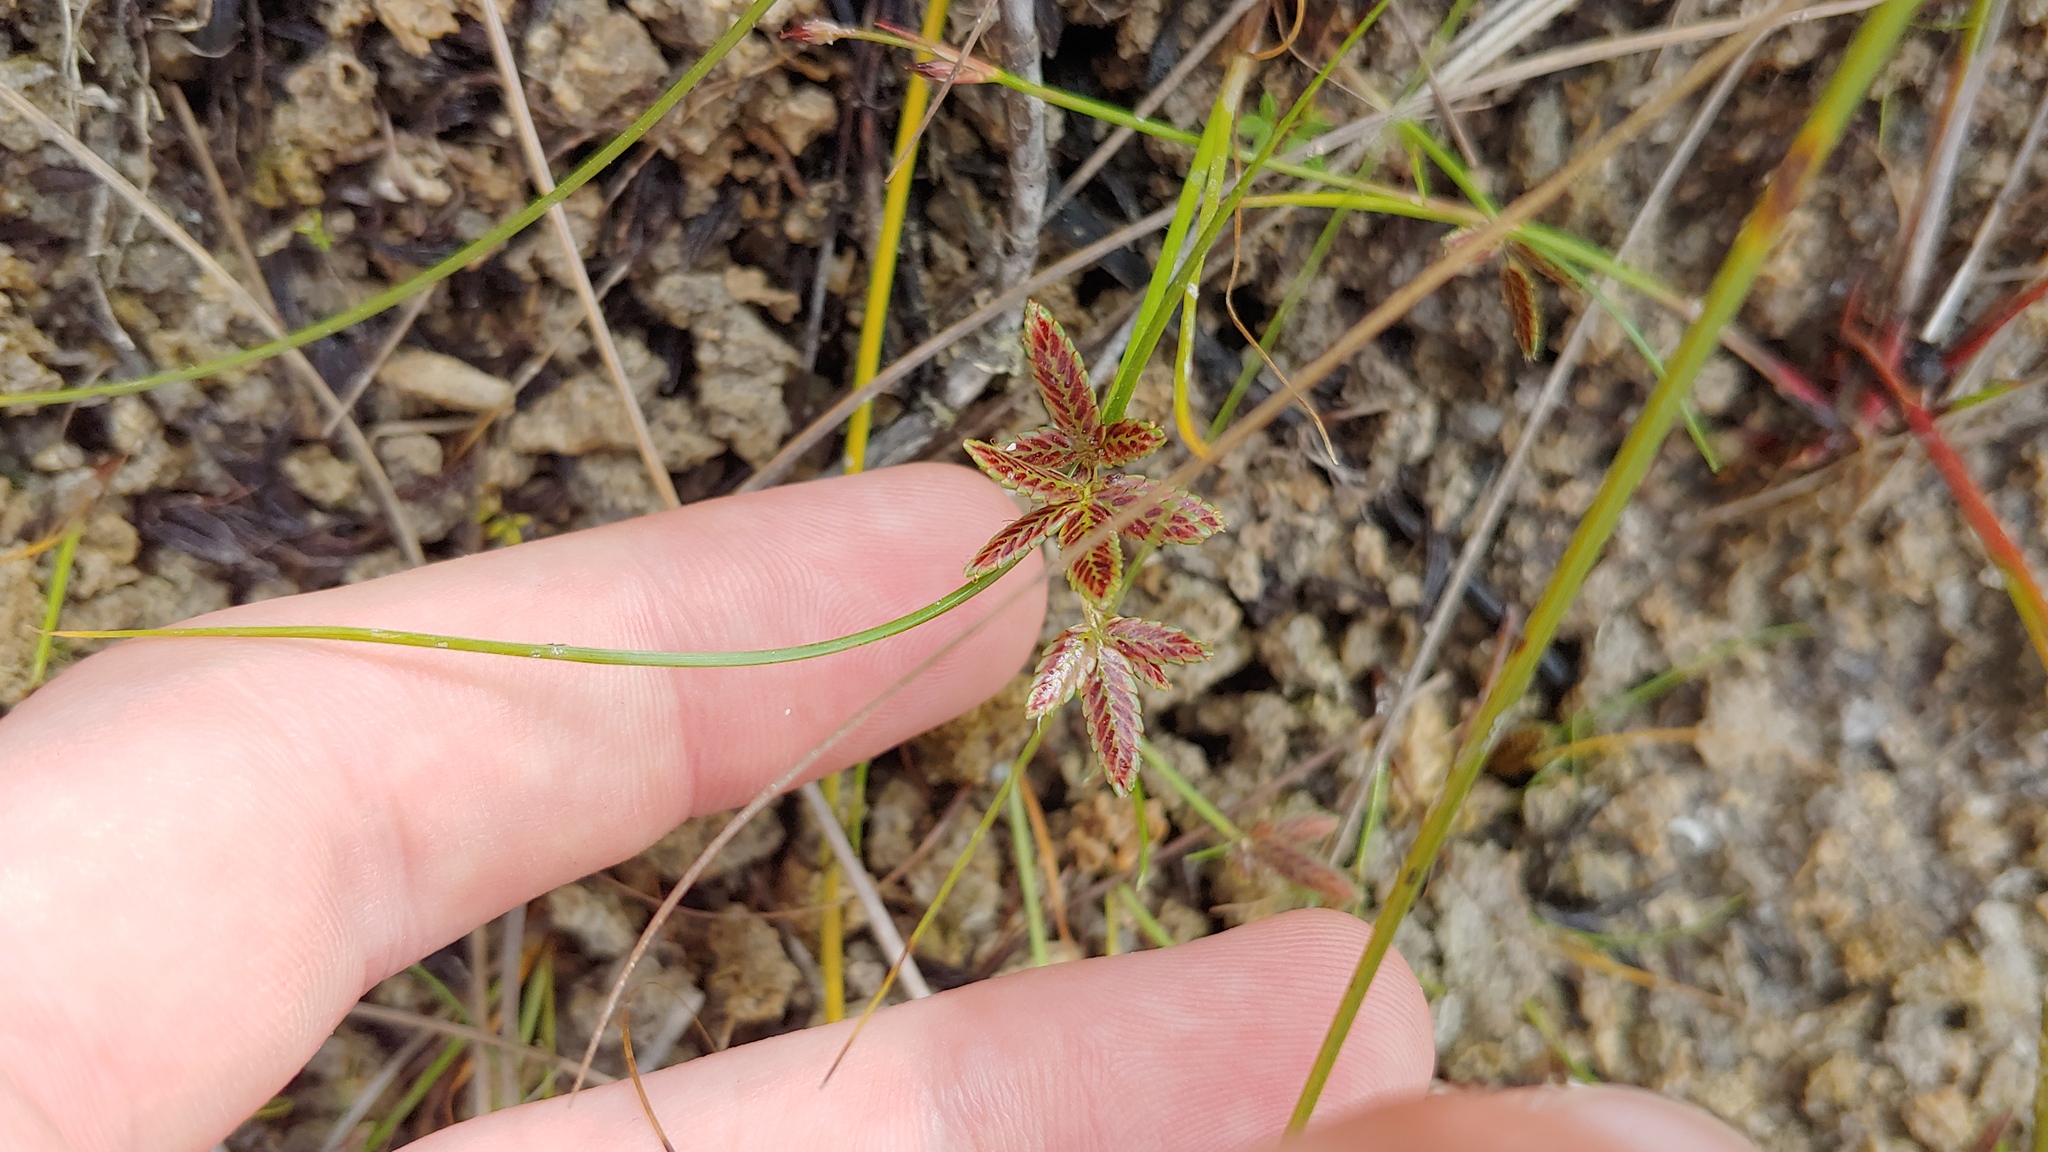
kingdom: Plantae
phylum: Tracheophyta
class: Liliopsida
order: Poales
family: Cyperaceae
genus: Cyperus
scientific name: Cyperus bipartitus
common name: Brook flatsedge
